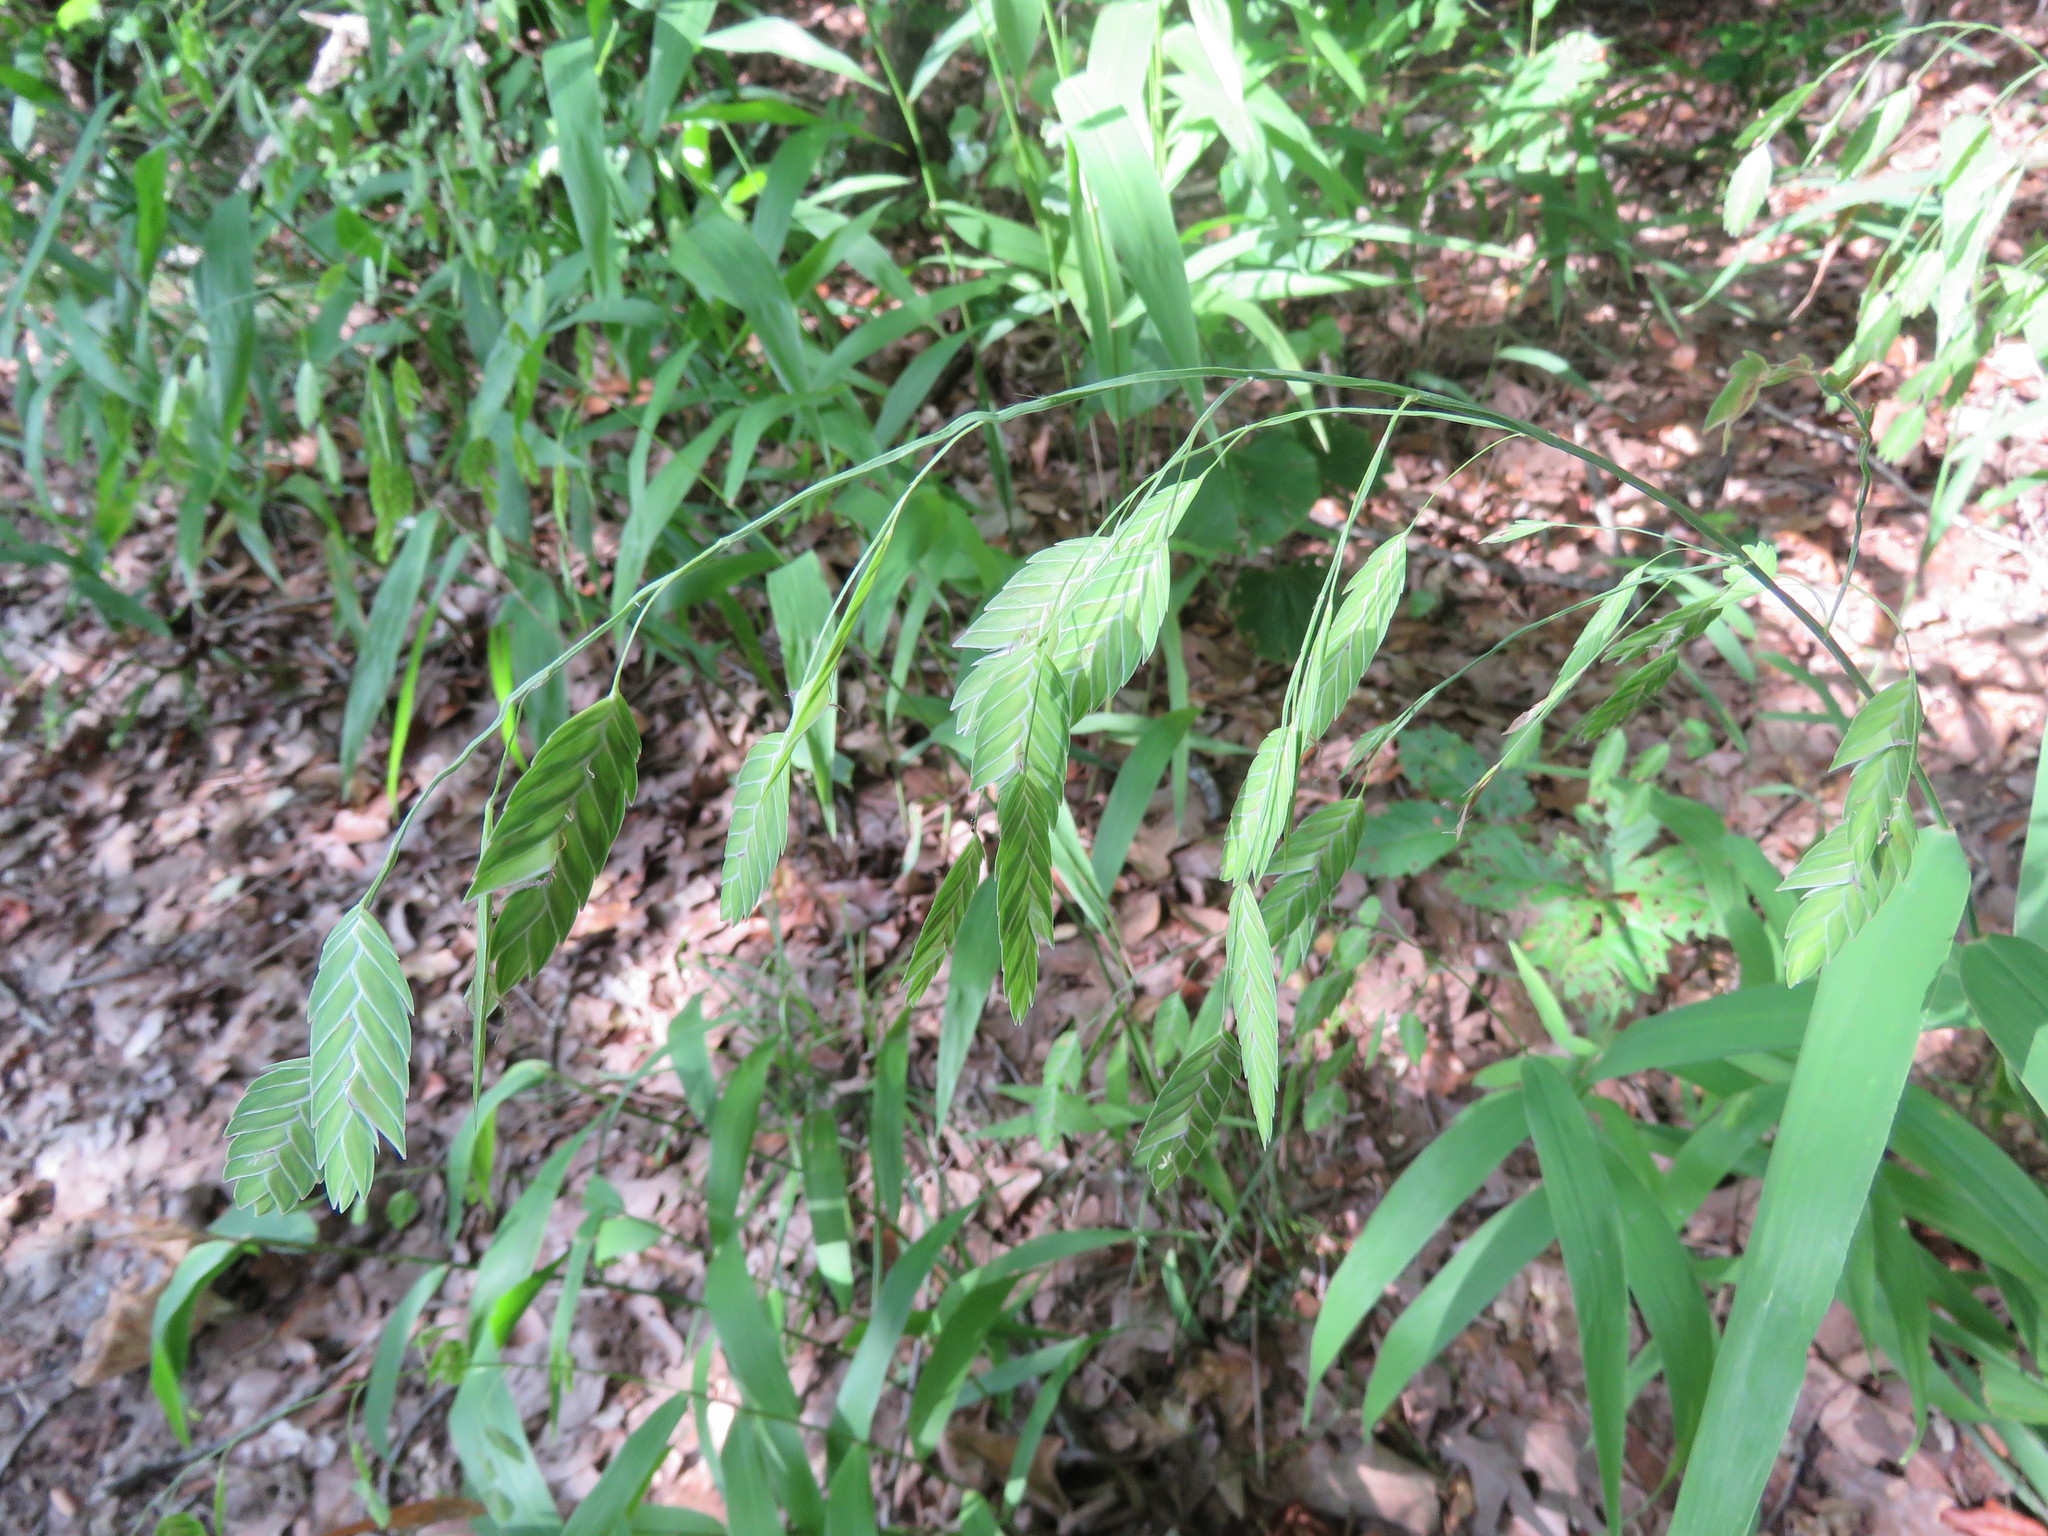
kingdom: Plantae
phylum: Tracheophyta
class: Liliopsida
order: Poales
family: Poaceae
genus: Chasmanthium
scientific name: Chasmanthium latifolium
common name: Broad-leaved chasmanthium
